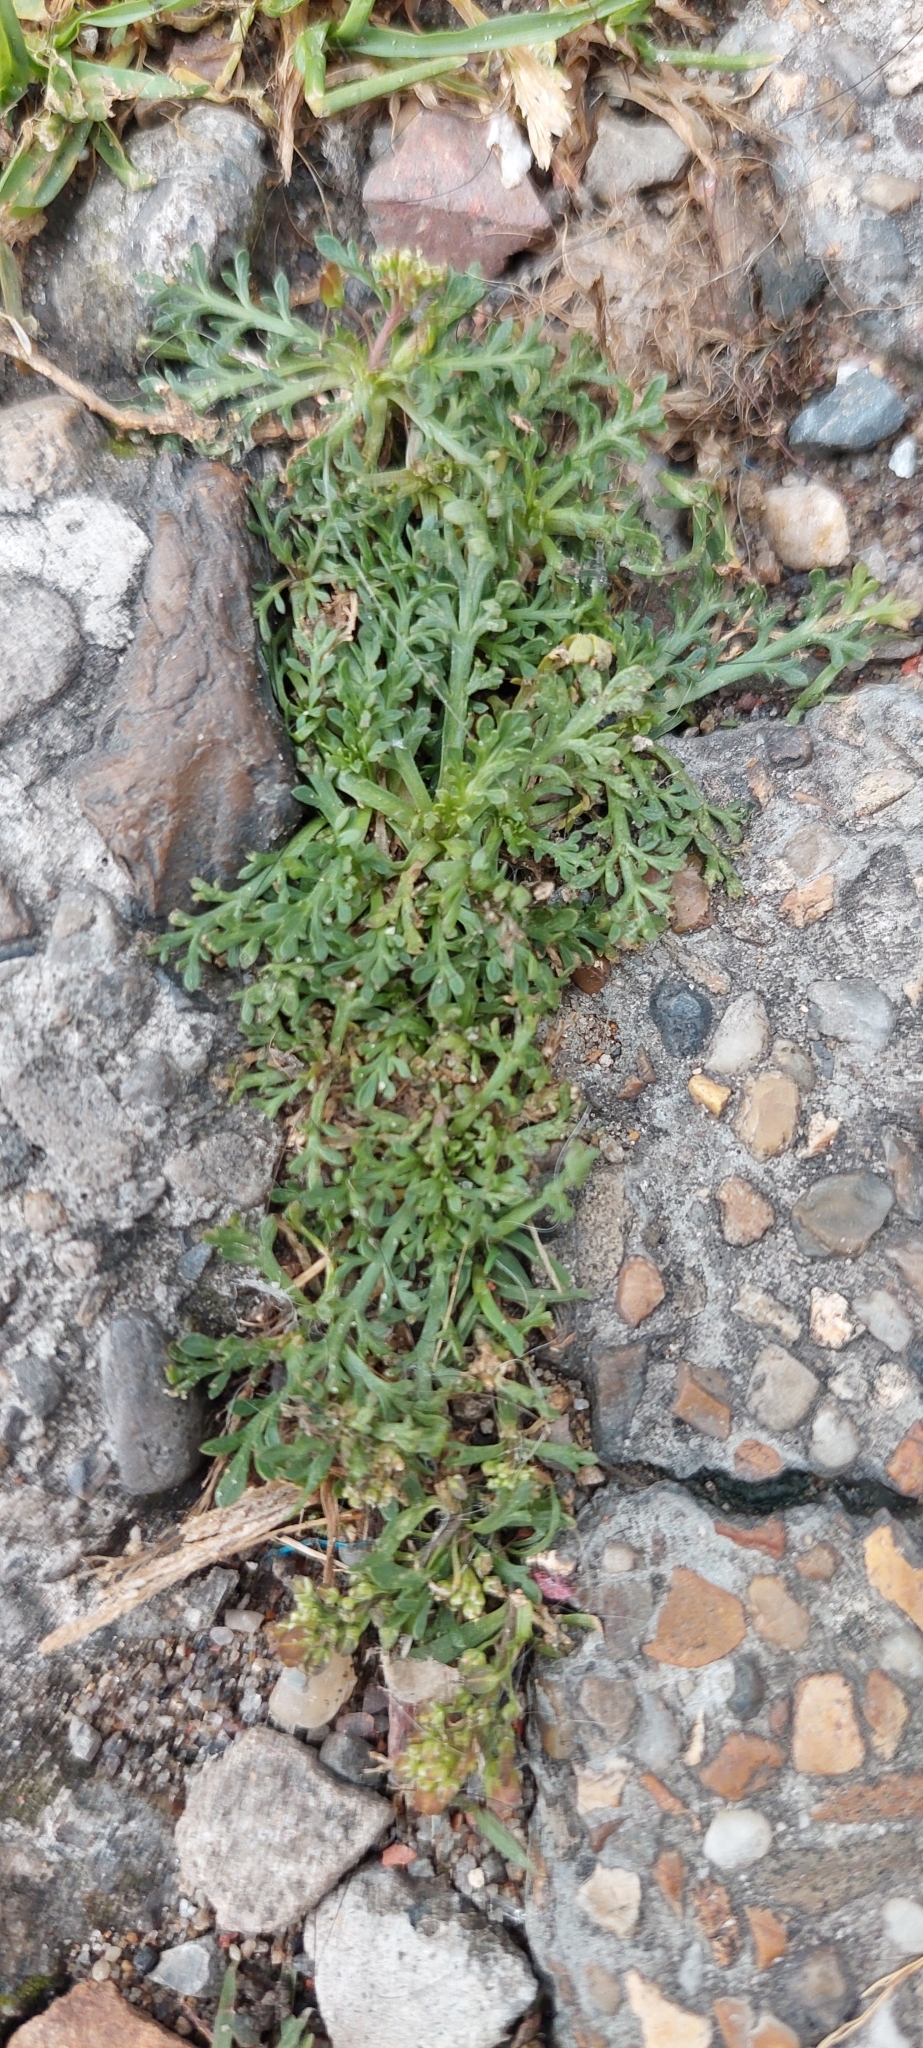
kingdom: Plantae
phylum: Tracheophyta
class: Magnoliopsida
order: Brassicales
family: Brassicaceae
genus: Lepidium
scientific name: Lepidium bipinnatifidum
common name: Wayside pepperwort
